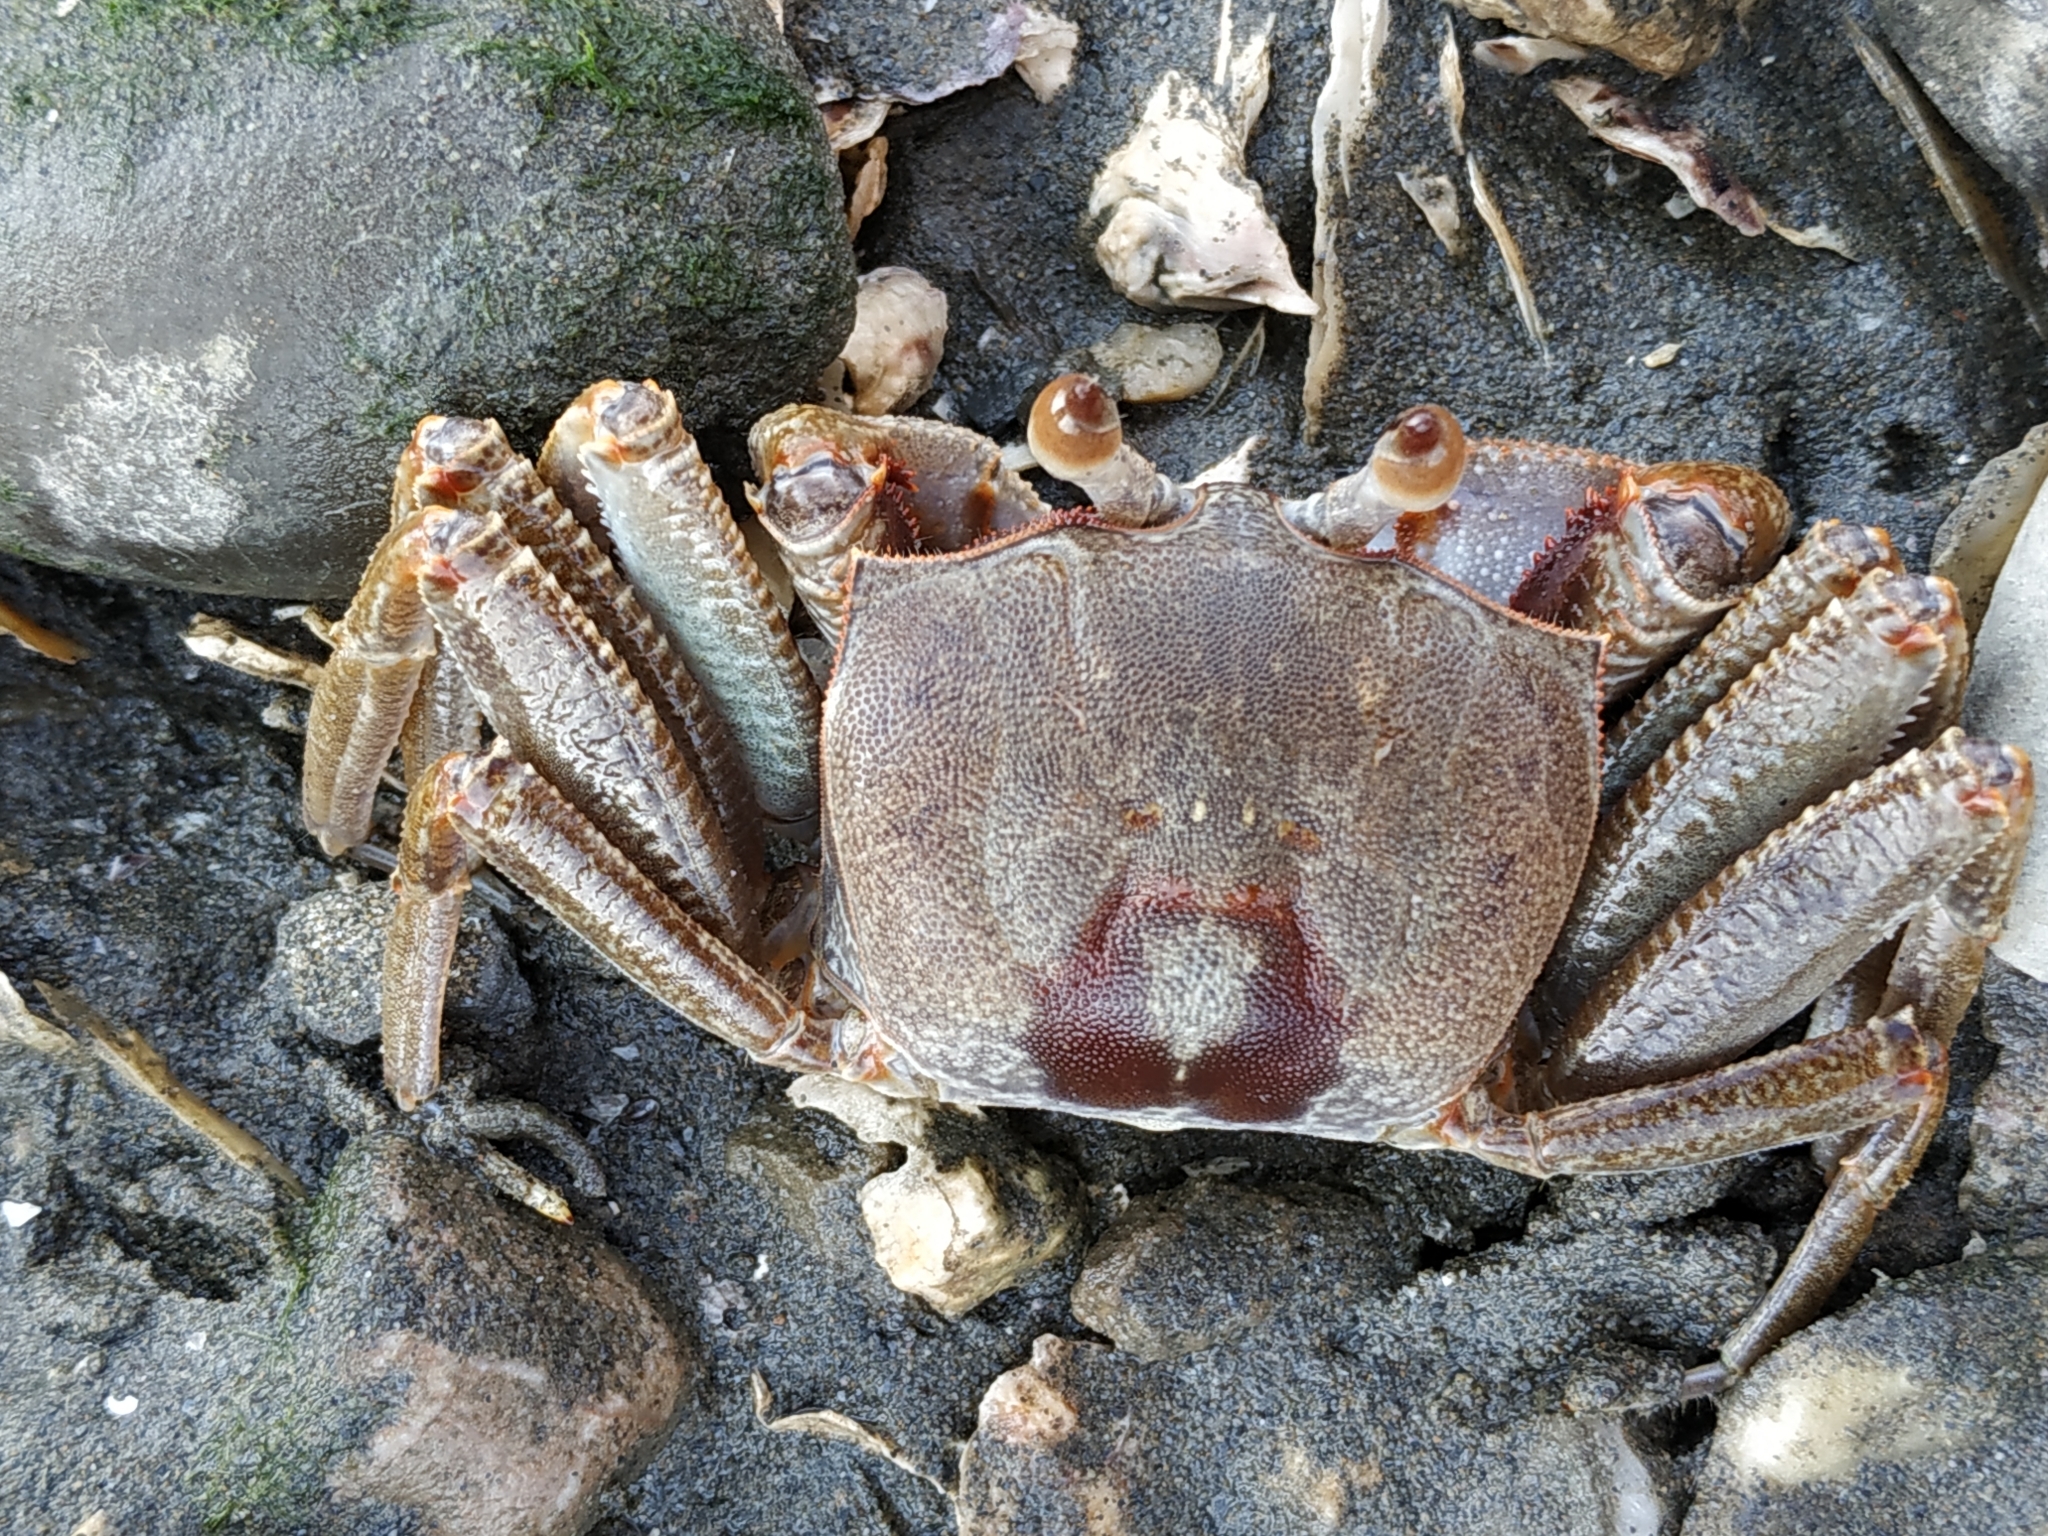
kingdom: Animalia
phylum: Arthropoda
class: Malacostraca
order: Decapoda
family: Ocypodidae
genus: Ocypode
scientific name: Ocypode ceratophthalmus
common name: Indo-pacific ghost crab
